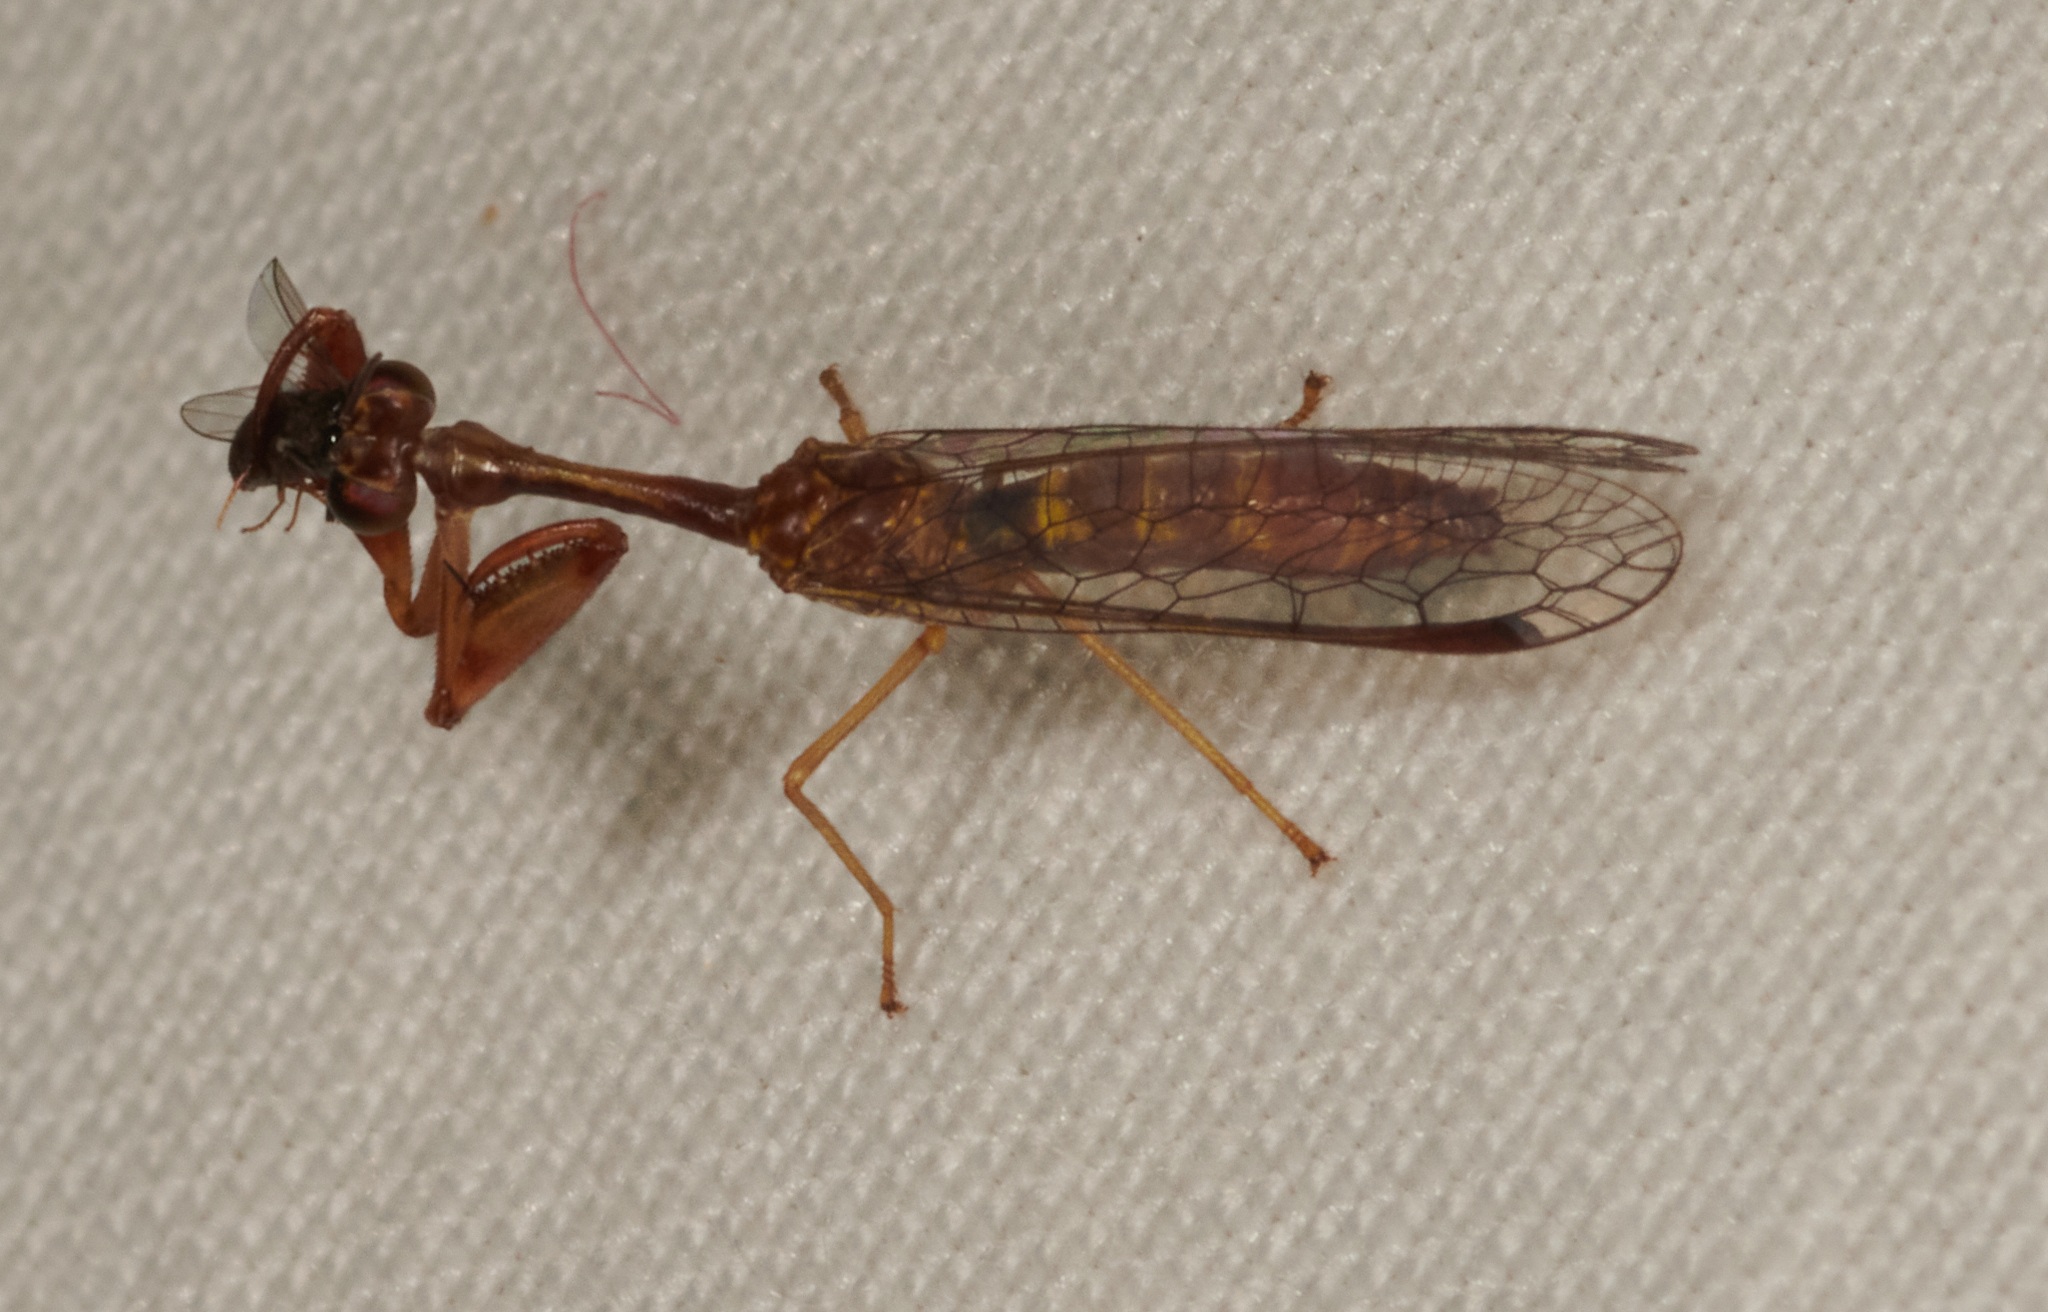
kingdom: Animalia
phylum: Arthropoda
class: Insecta
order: Neuroptera
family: Mantispidae
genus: Leptomantispa
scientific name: Leptomantispa pulchella
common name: Stevens's mantidfly
